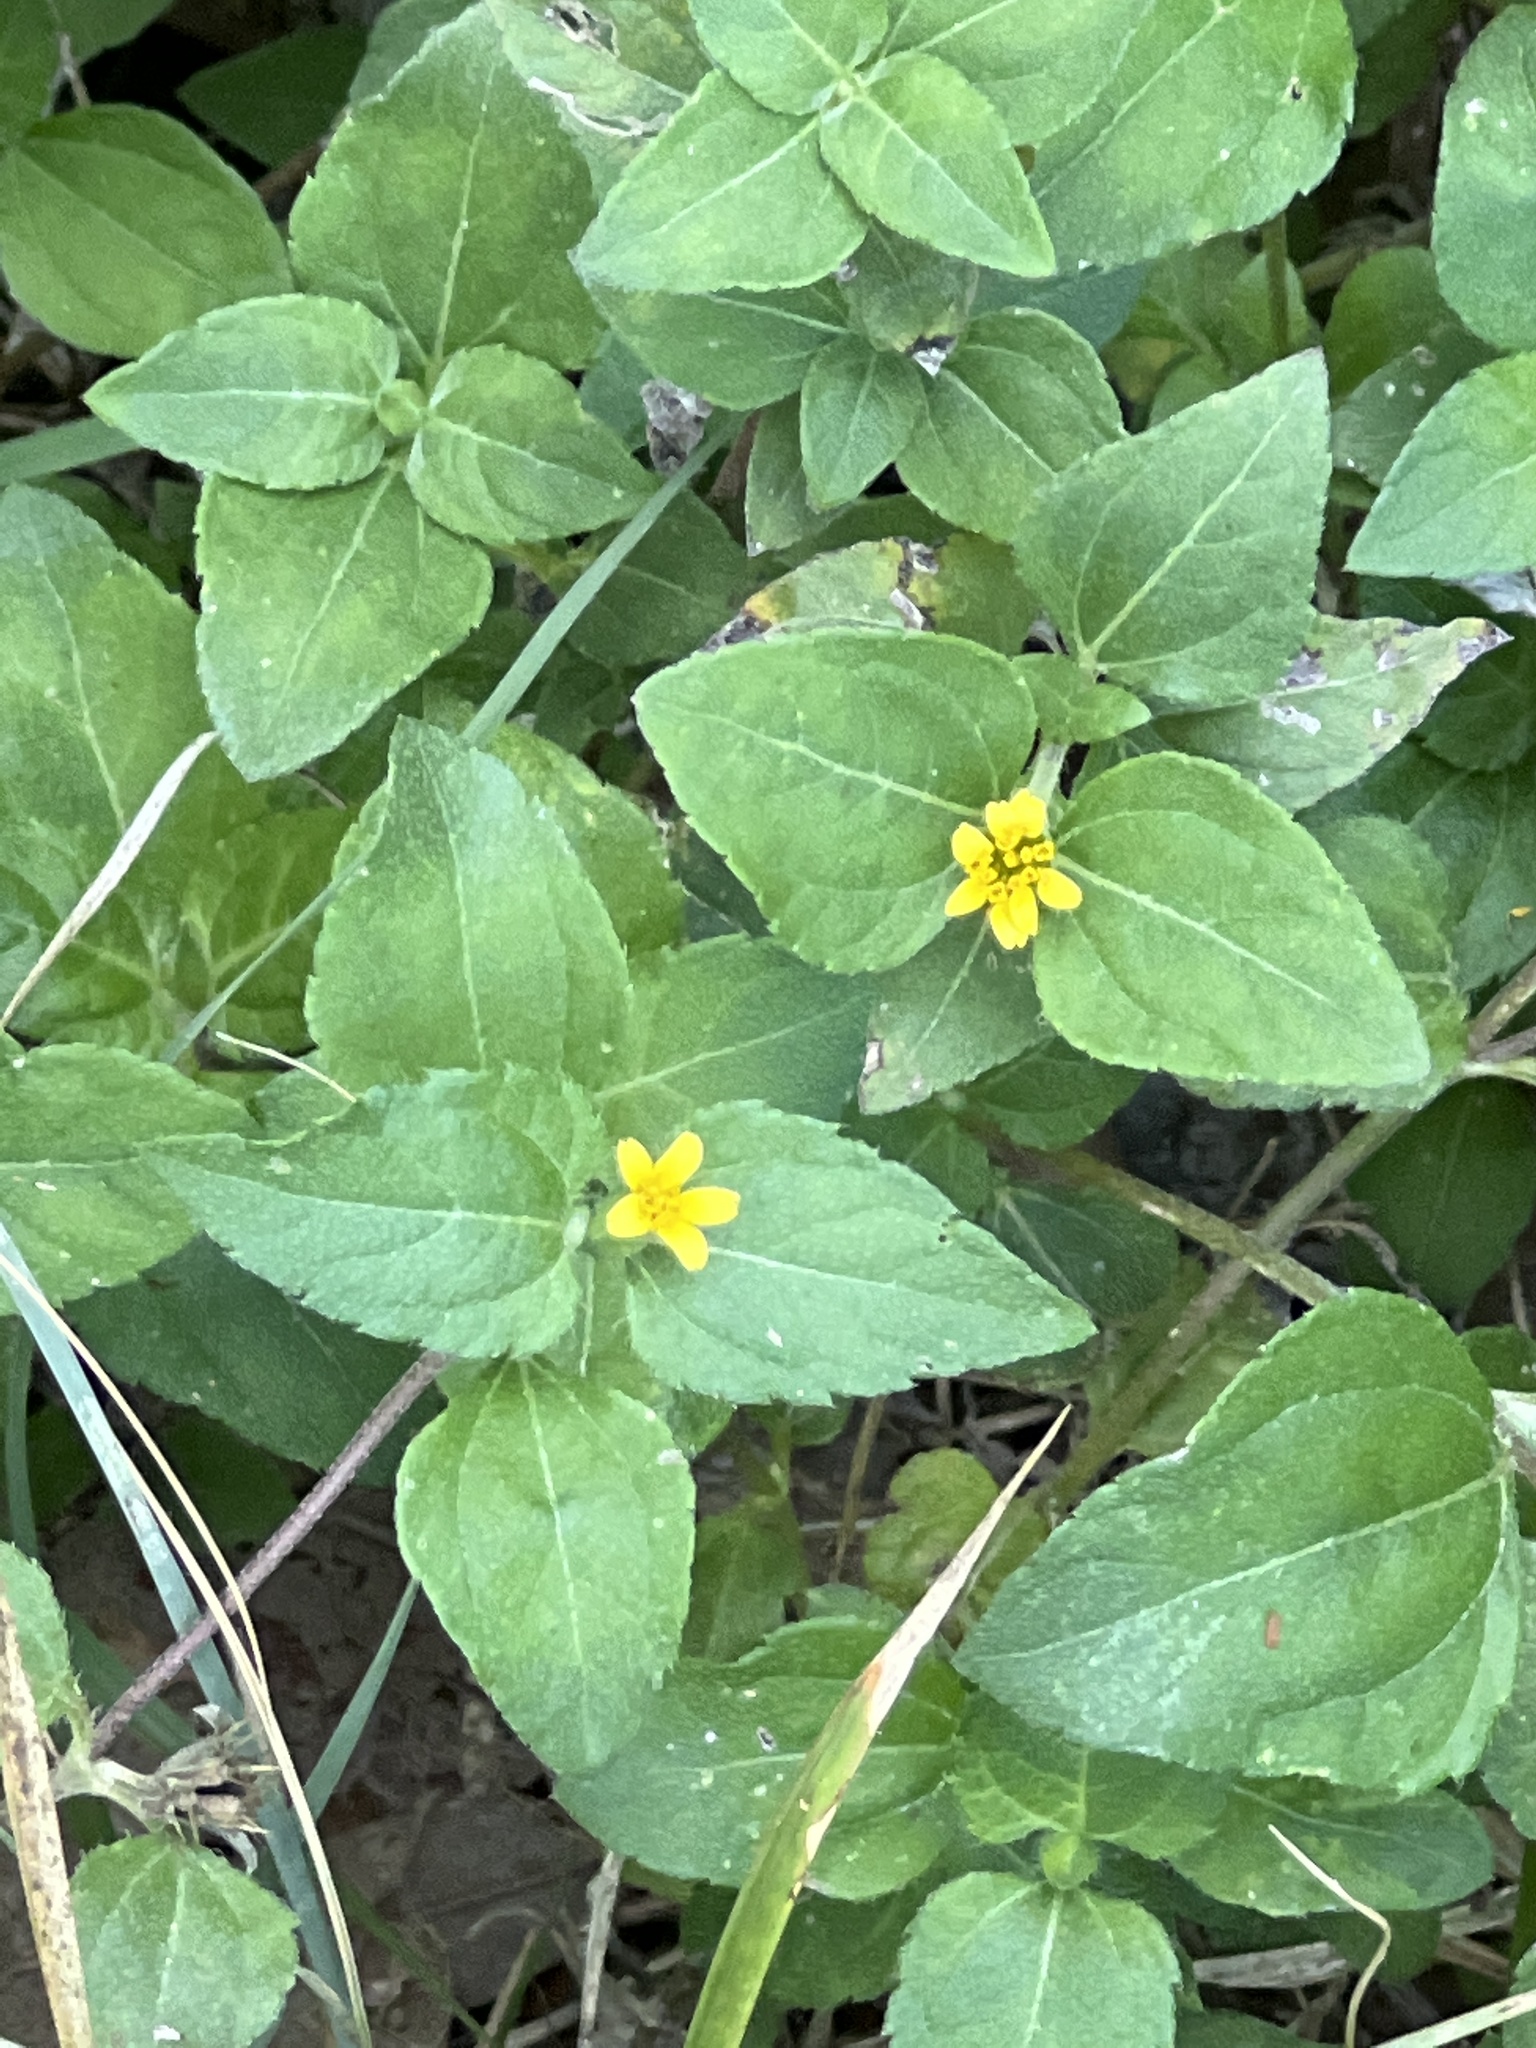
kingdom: Plantae
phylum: Tracheophyta
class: Magnoliopsida
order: Asterales
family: Asteraceae
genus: Calyptocarpus
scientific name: Calyptocarpus vialis
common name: Straggler daisy
